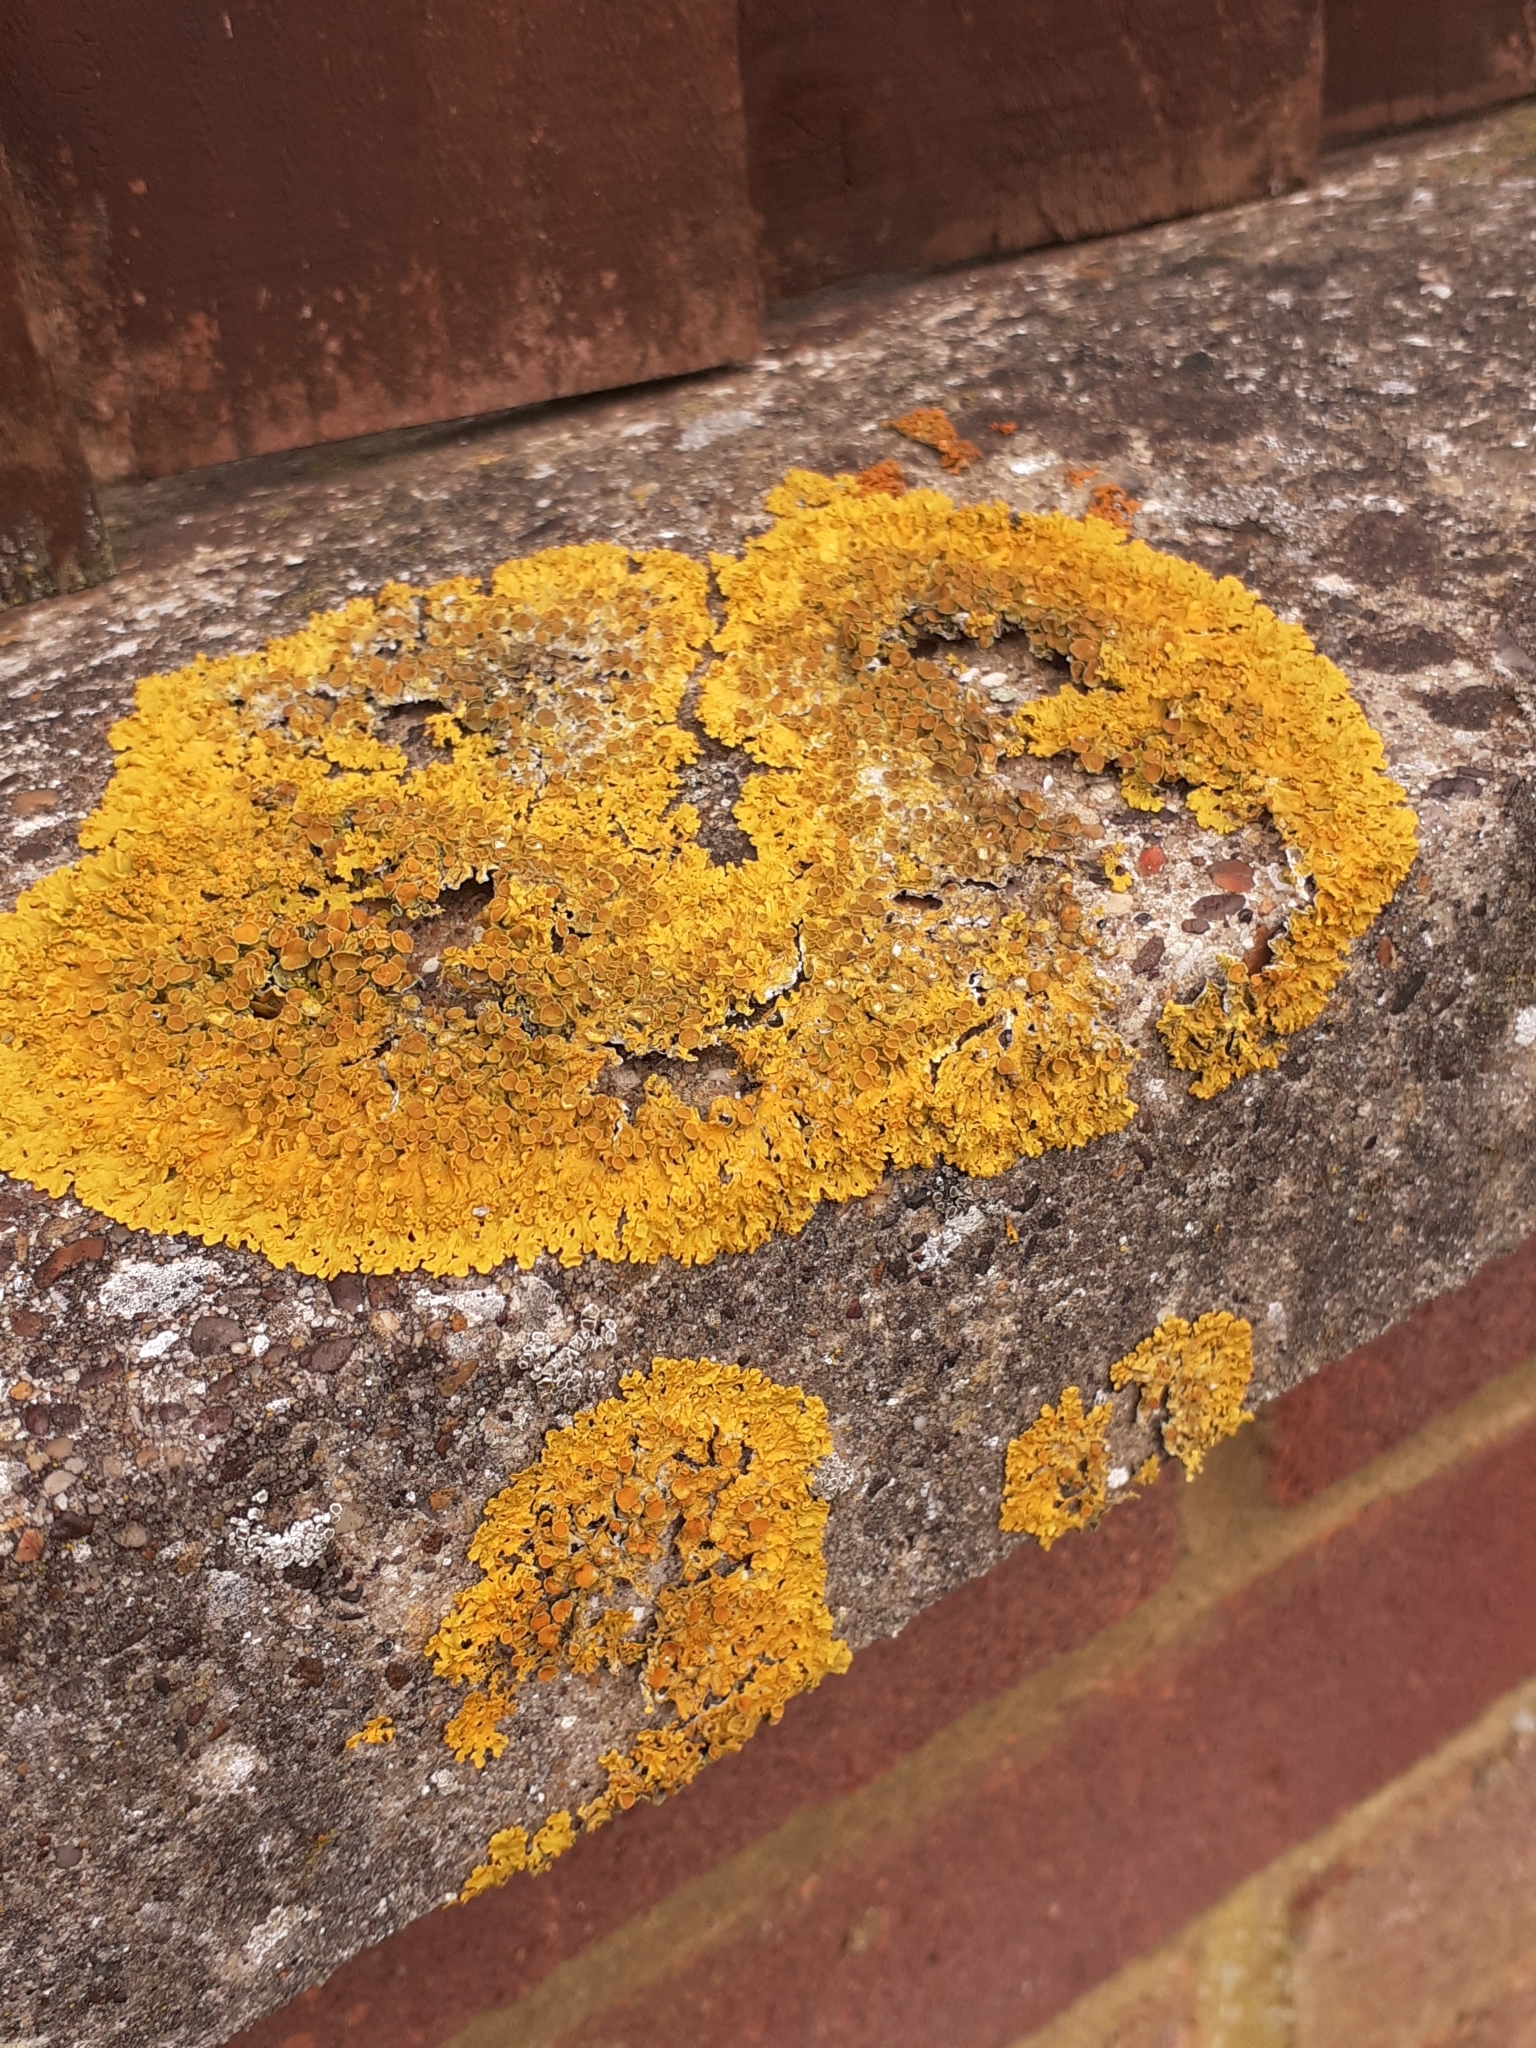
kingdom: Fungi
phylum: Ascomycota
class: Lecanoromycetes
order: Teloschistales
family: Teloschistaceae
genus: Xanthoria
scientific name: Xanthoria parietina
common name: Common orange lichen
